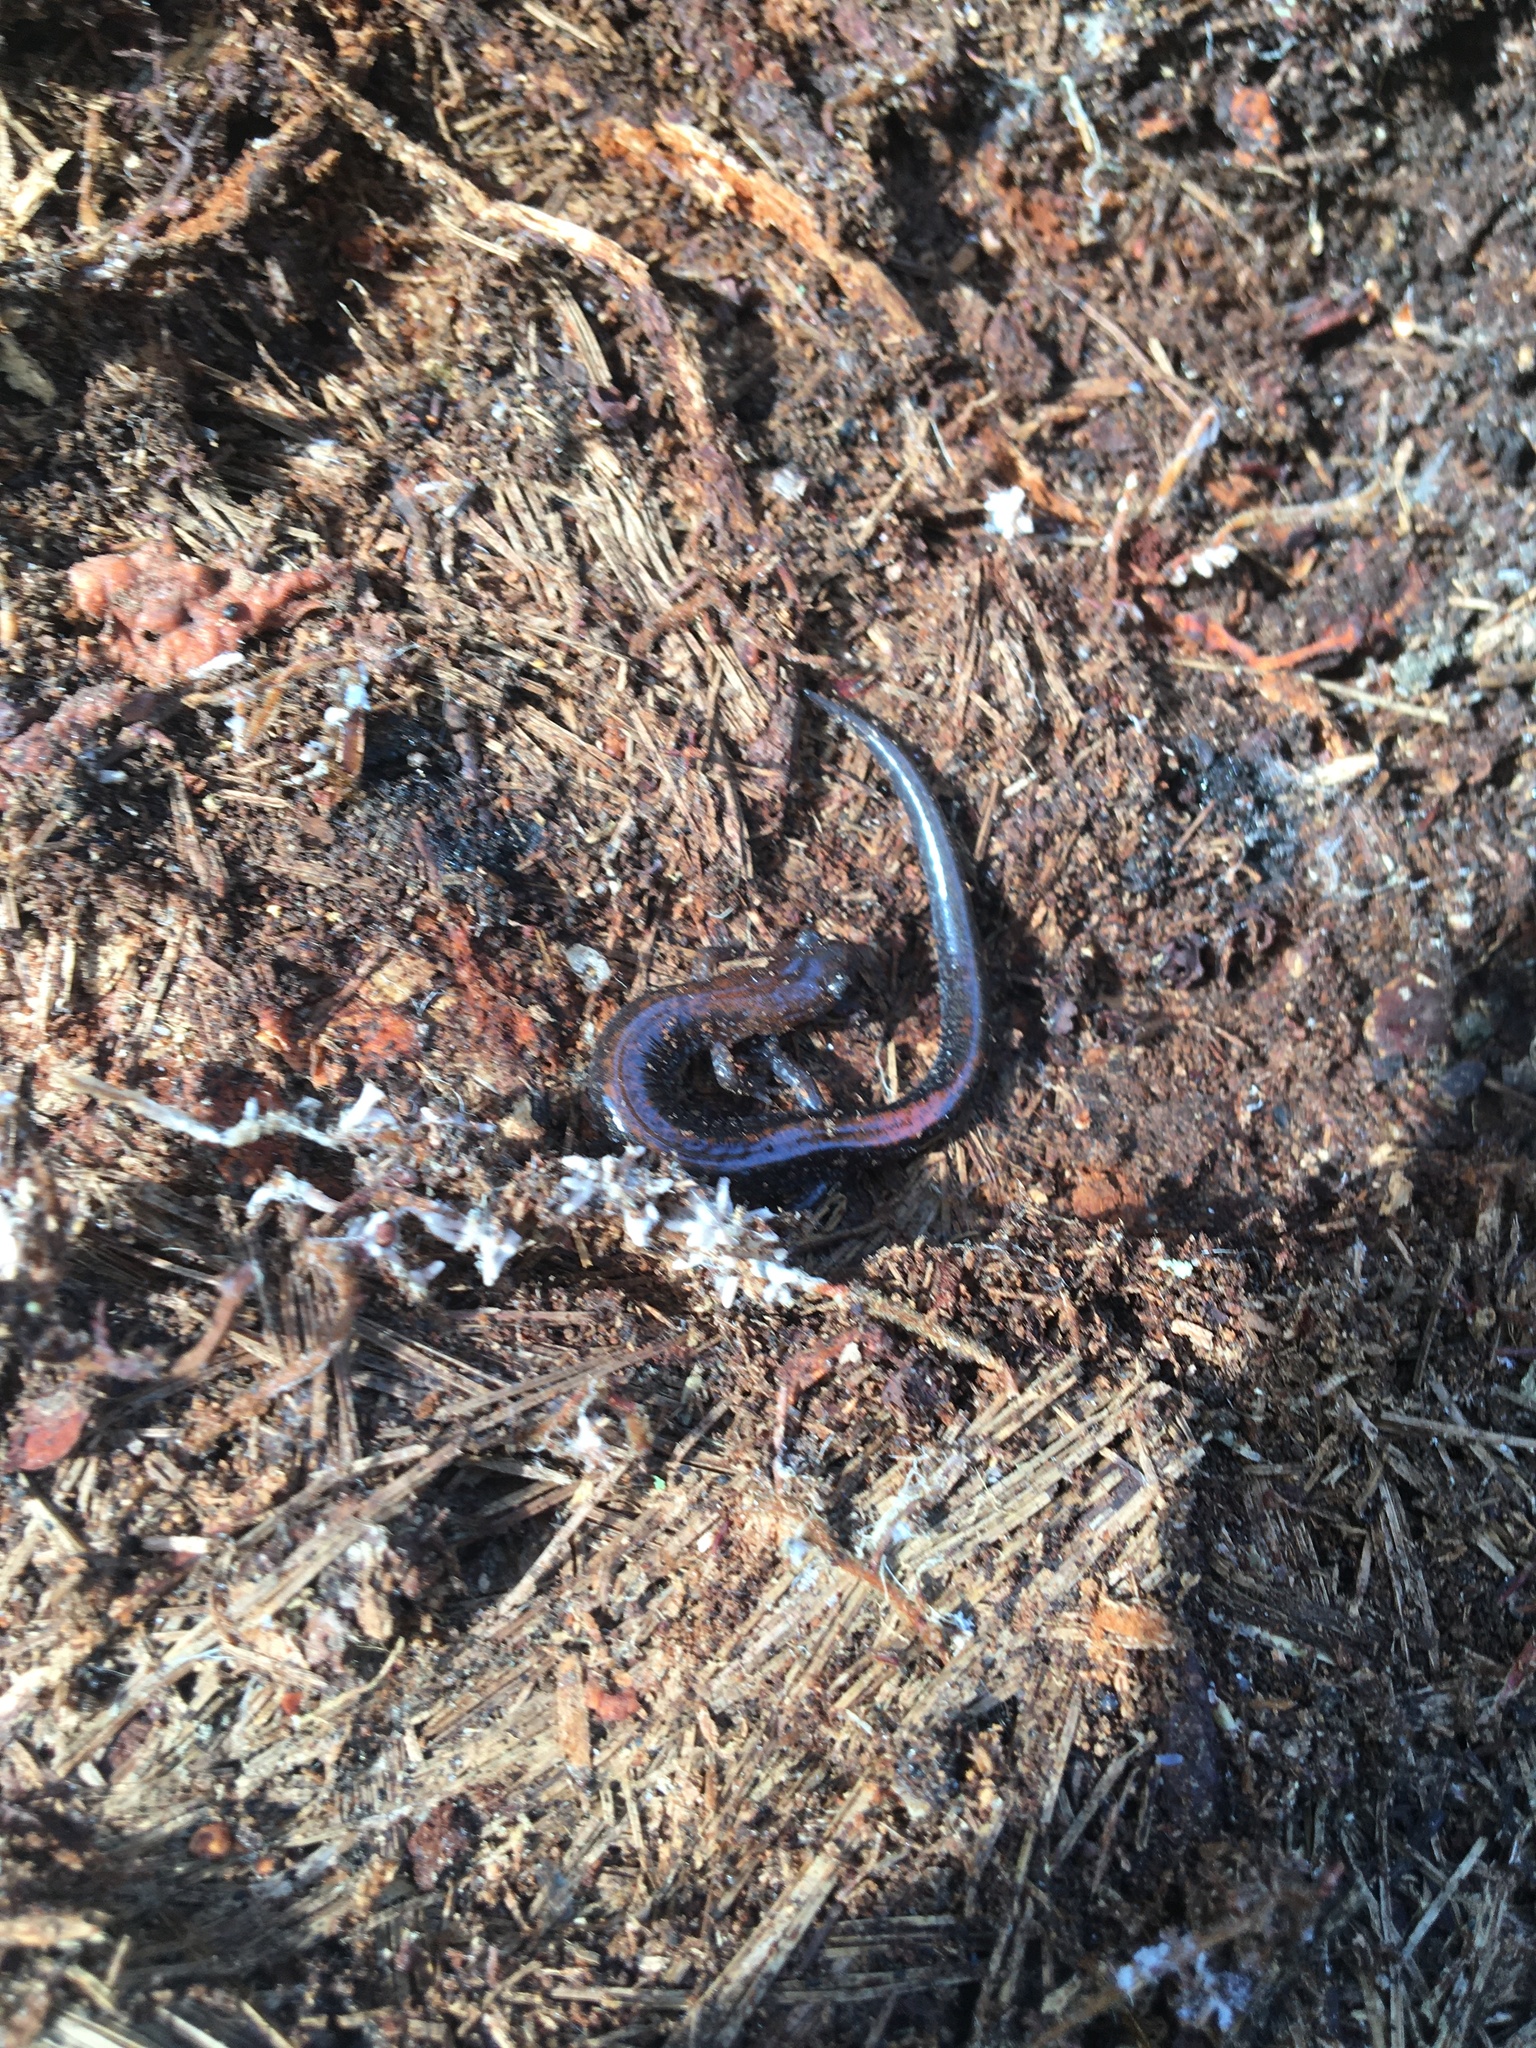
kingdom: Animalia
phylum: Chordata
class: Amphibia
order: Caudata
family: Plethodontidae
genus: Plethodon
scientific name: Plethodon cinereus
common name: Redback salamander
